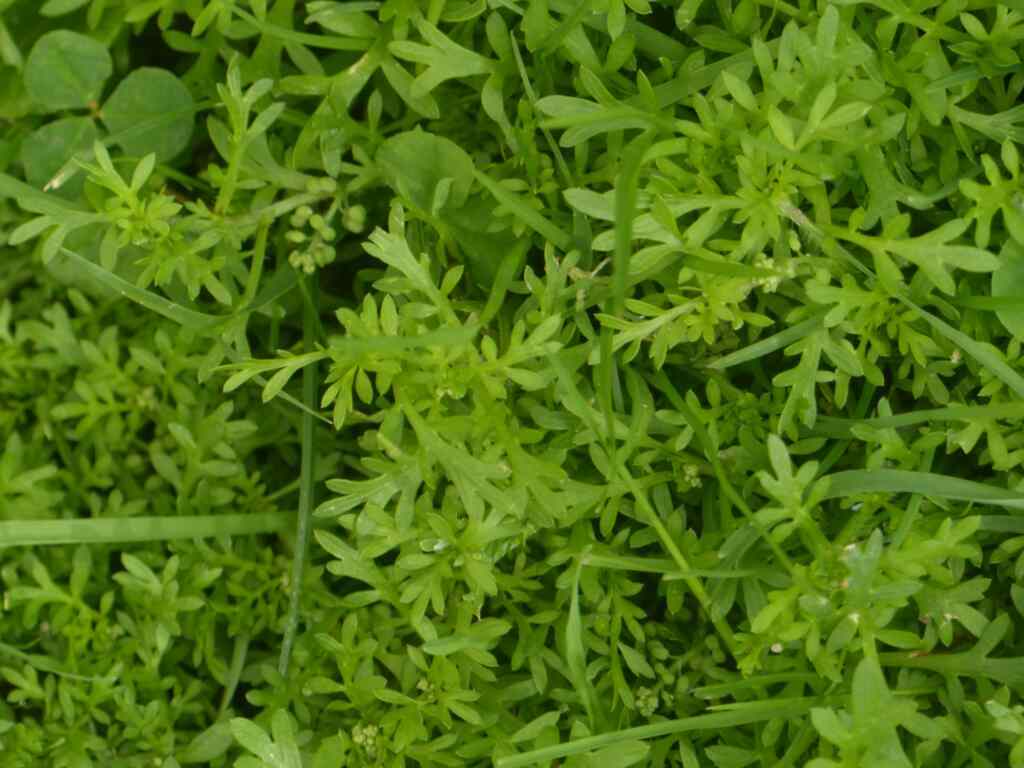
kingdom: Plantae
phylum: Tracheophyta
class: Magnoliopsida
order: Brassicales
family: Brassicaceae
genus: Lepidium
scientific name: Lepidium didymum
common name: Lesser swinecress
